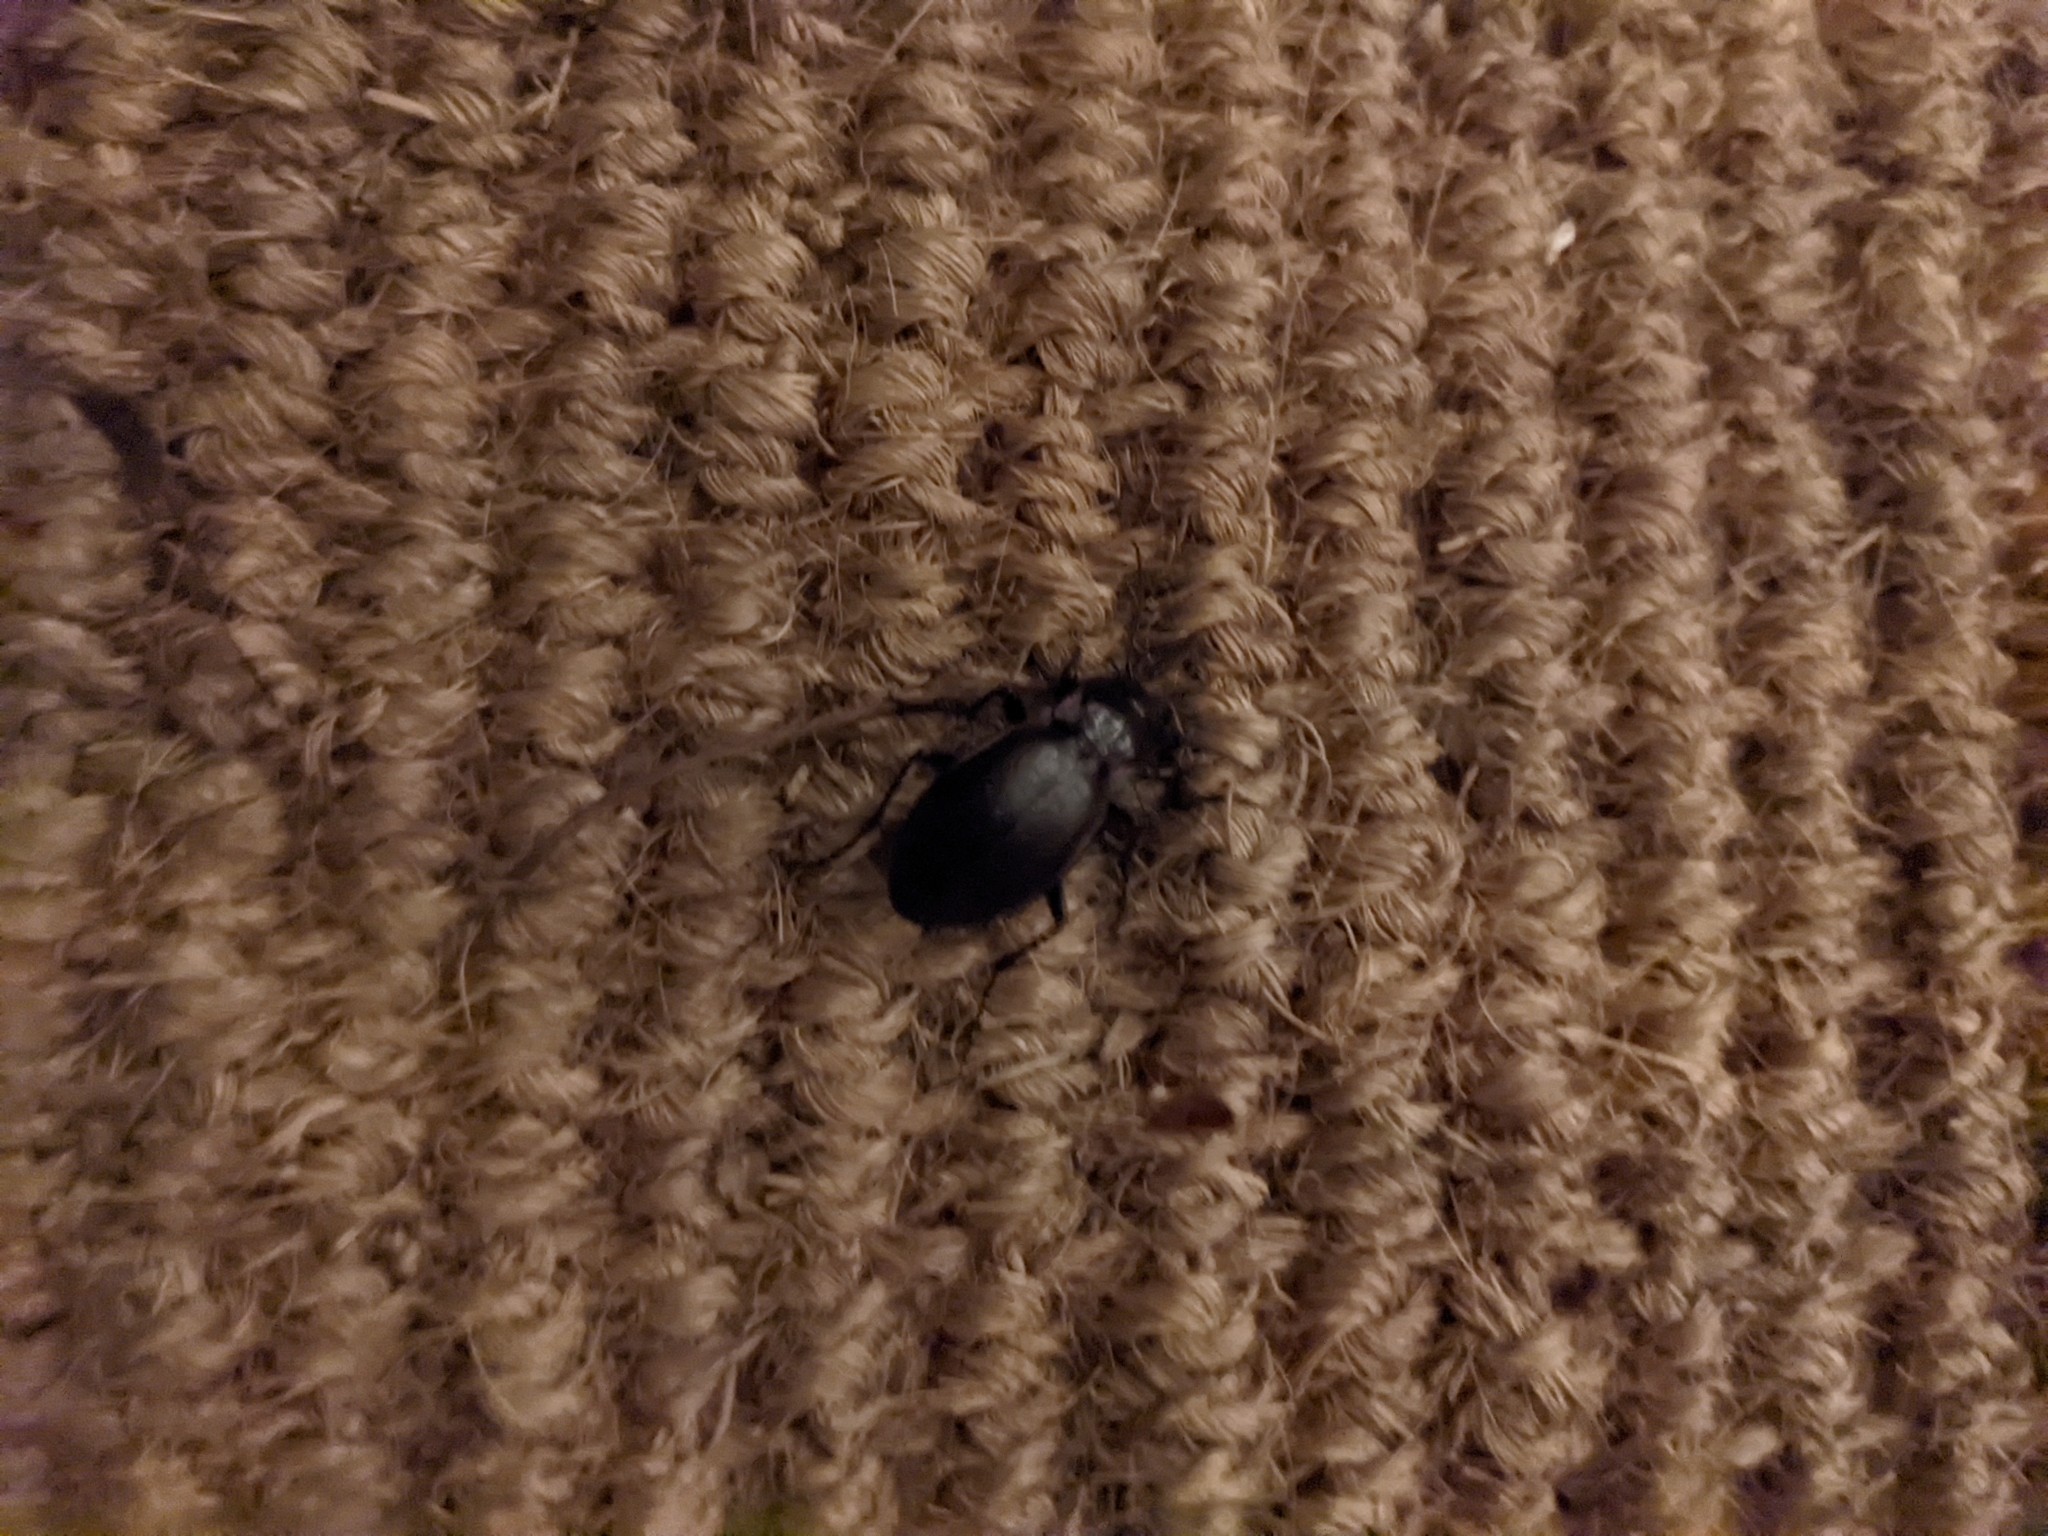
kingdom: Animalia
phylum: Arthropoda
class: Insecta
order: Coleoptera
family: Carabidae
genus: Carabus
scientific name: Carabus nemoralis
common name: European ground beetle
